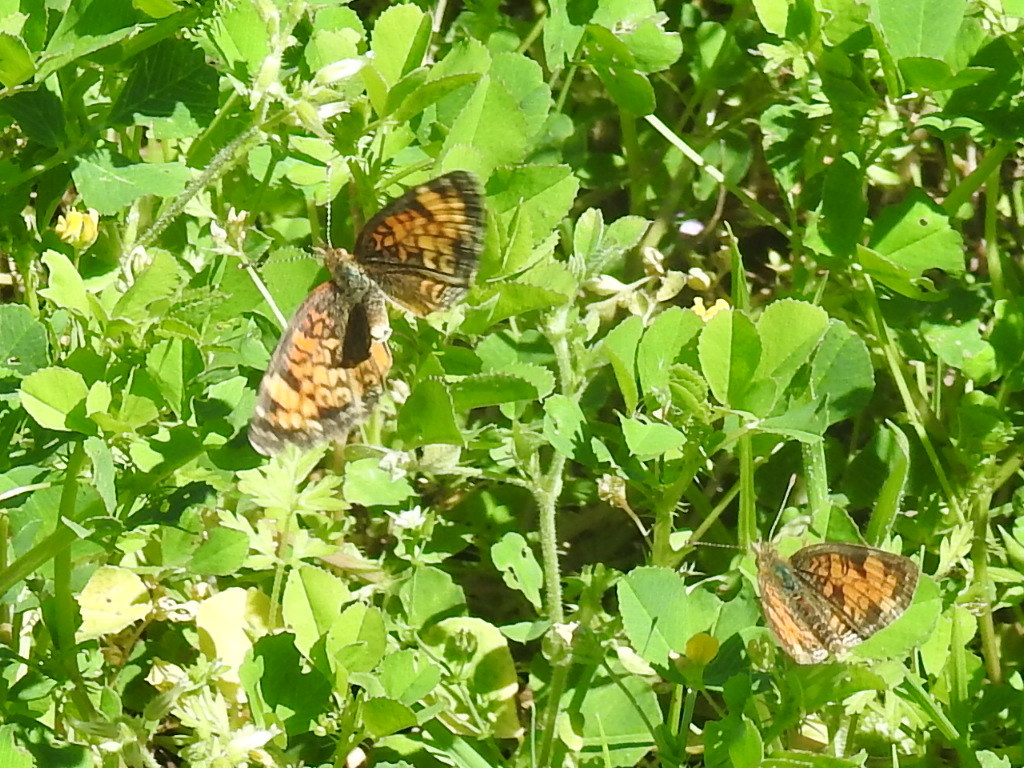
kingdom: Animalia
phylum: Arthropoda
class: Insecta
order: Lepidoptera
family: Nymphalidae
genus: Phyciodes
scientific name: Phyciodes tharos
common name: Pearl crescent
